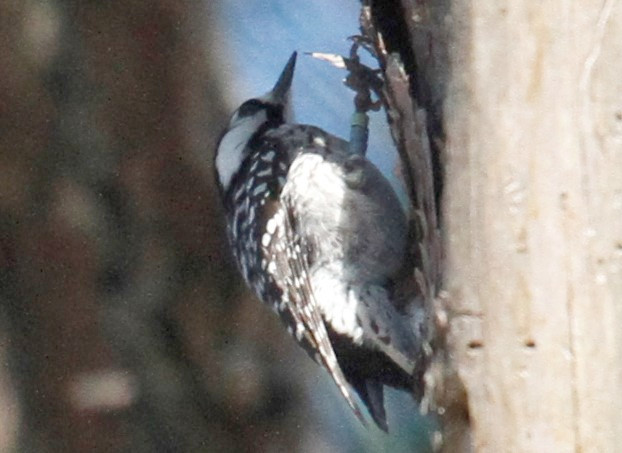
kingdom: Animalia
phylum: Chordata
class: Aves
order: Piciformes
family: Picidae
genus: Leuconotopicus
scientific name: Leuconotopicus borealis
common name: Red-cockaded woodpecker
